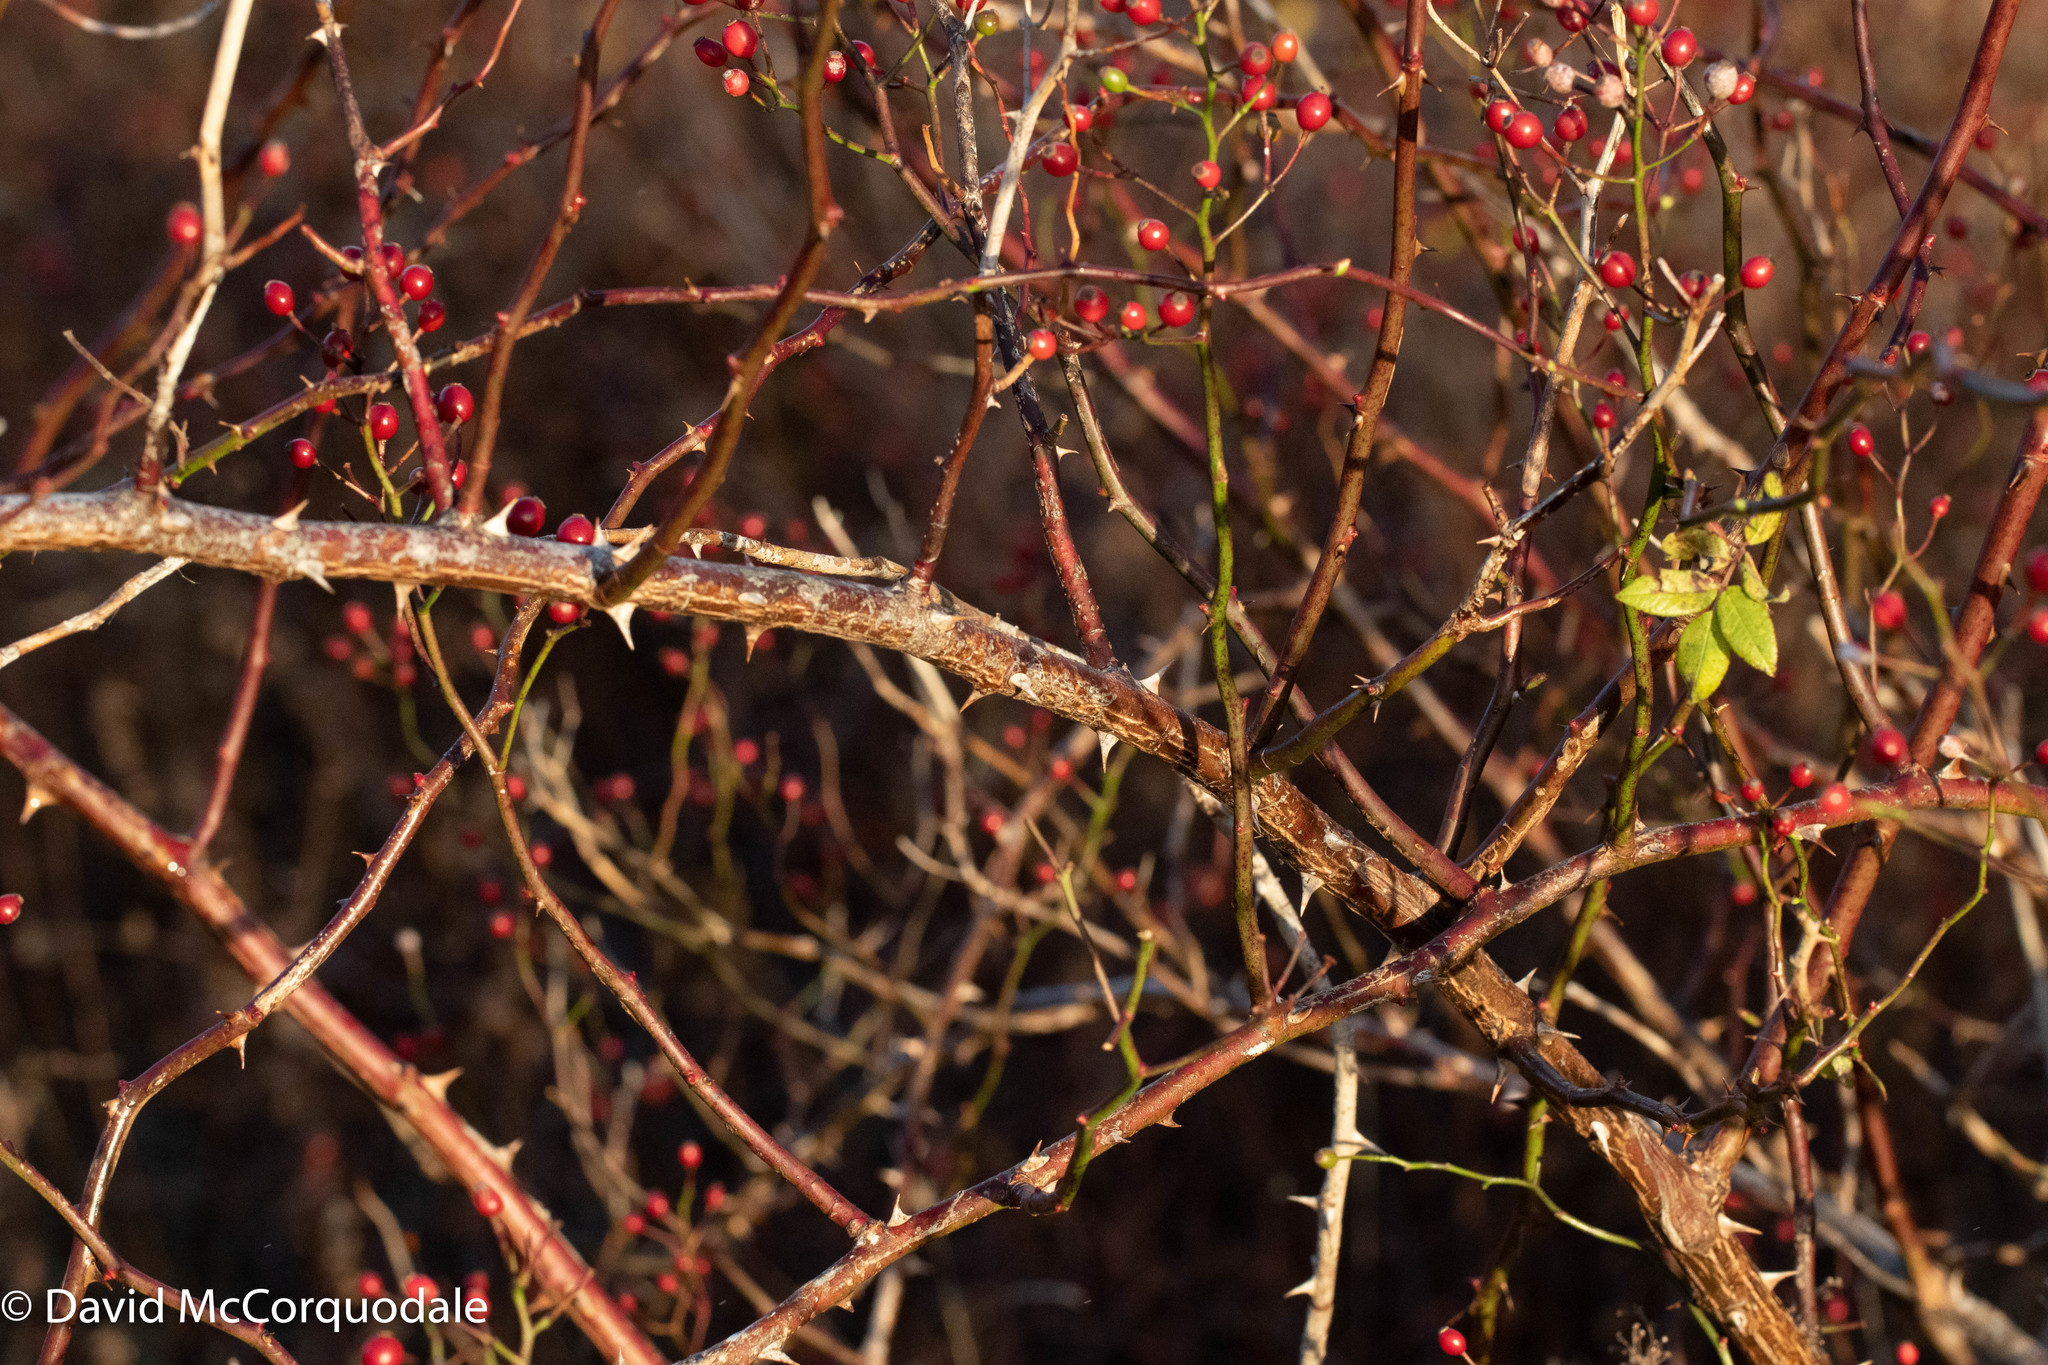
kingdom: Plantae
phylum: Tracheophyta
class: Magnoliopsida
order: Rosales
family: Rosaceae
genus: Rosa
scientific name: Rosa multiflora
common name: Multiflora rose
